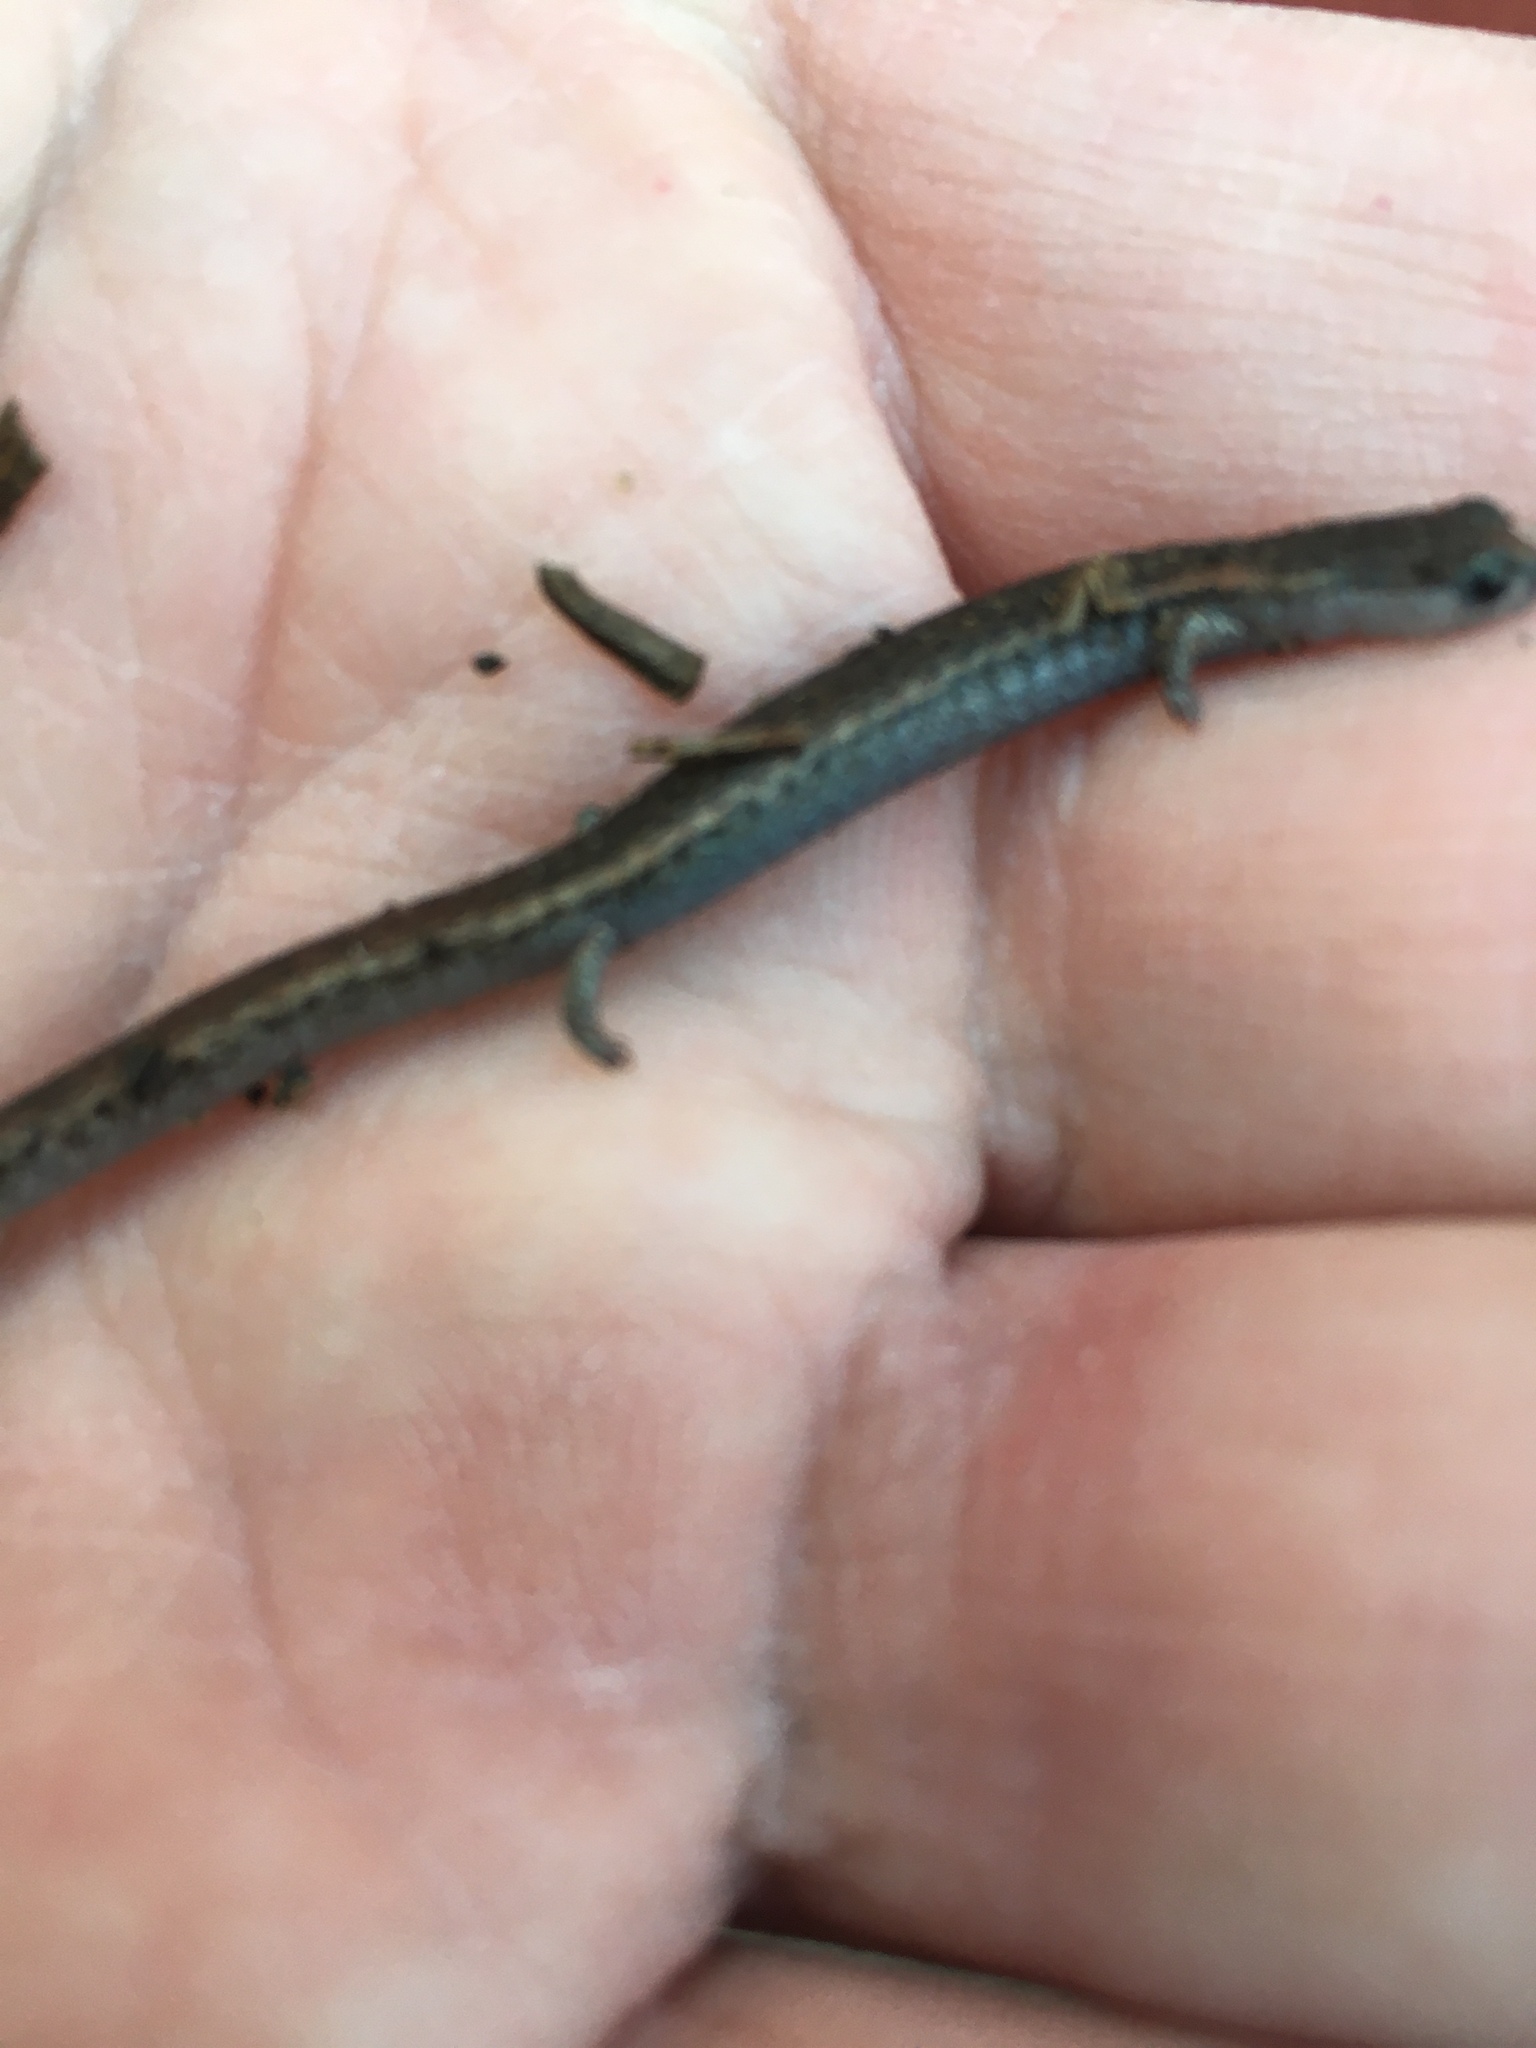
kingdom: Animalia
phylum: Chordata
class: Amphibia
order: Caudata
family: Plethodontidae
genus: Batrachoseps
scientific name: Batrachoseps major
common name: Garden slender salamander
